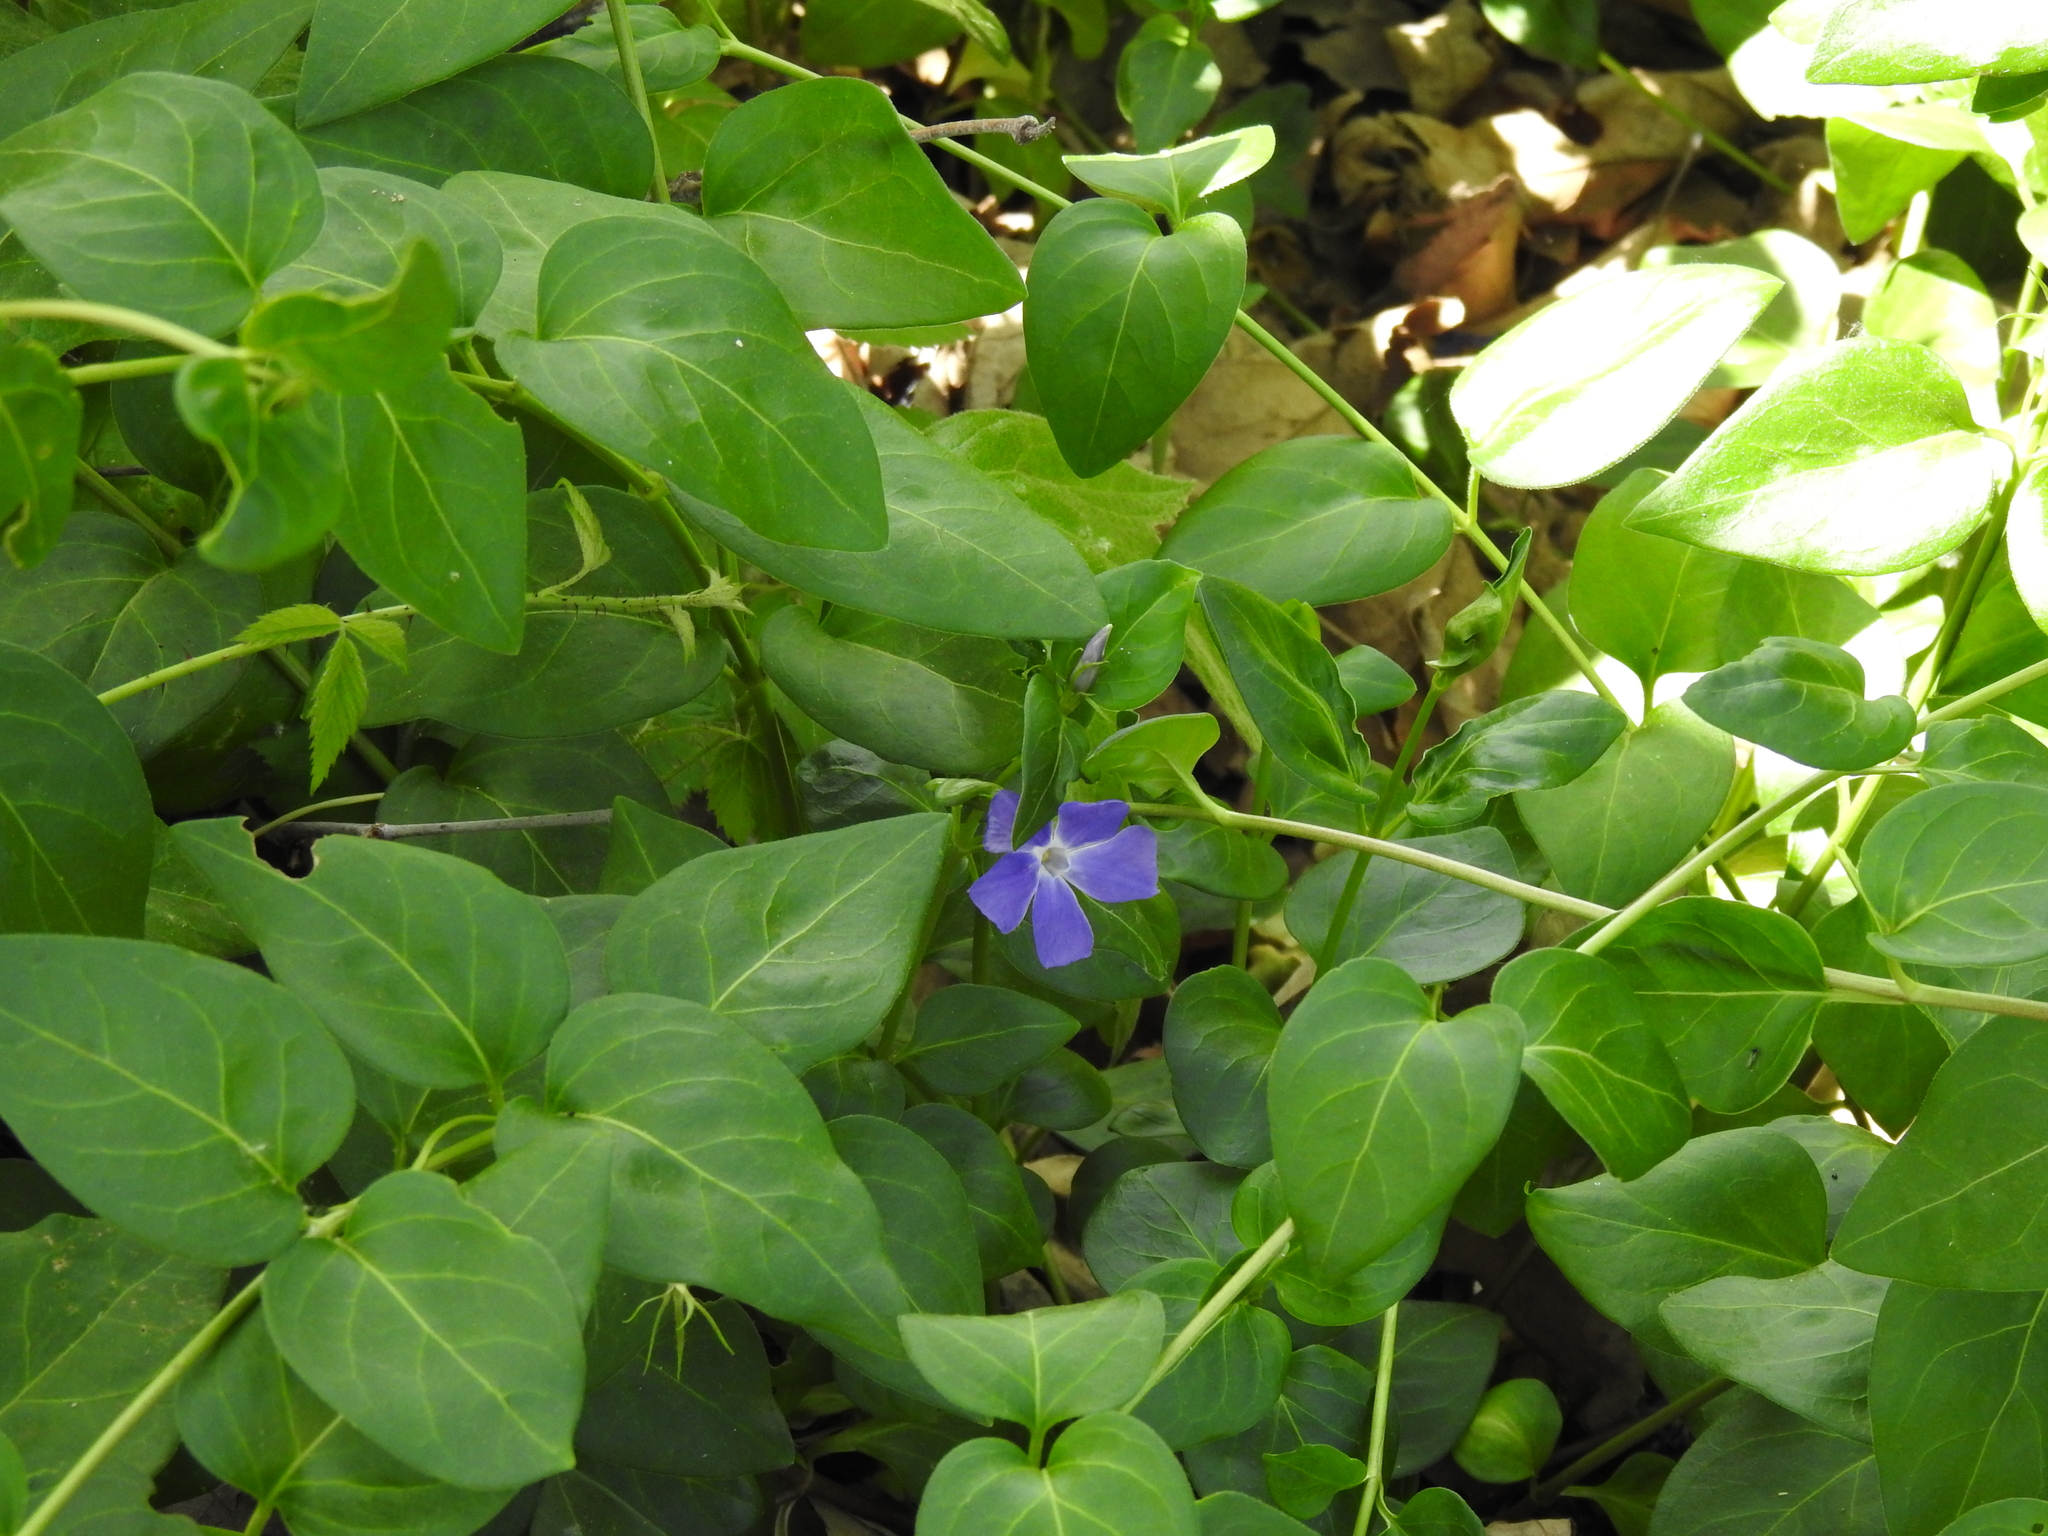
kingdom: Plantae
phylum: Tracheophyta
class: Magnoliopsida
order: Gentianales
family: Apocynaceae
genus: Vinca
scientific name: Vinca major
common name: Greater periwinkle
